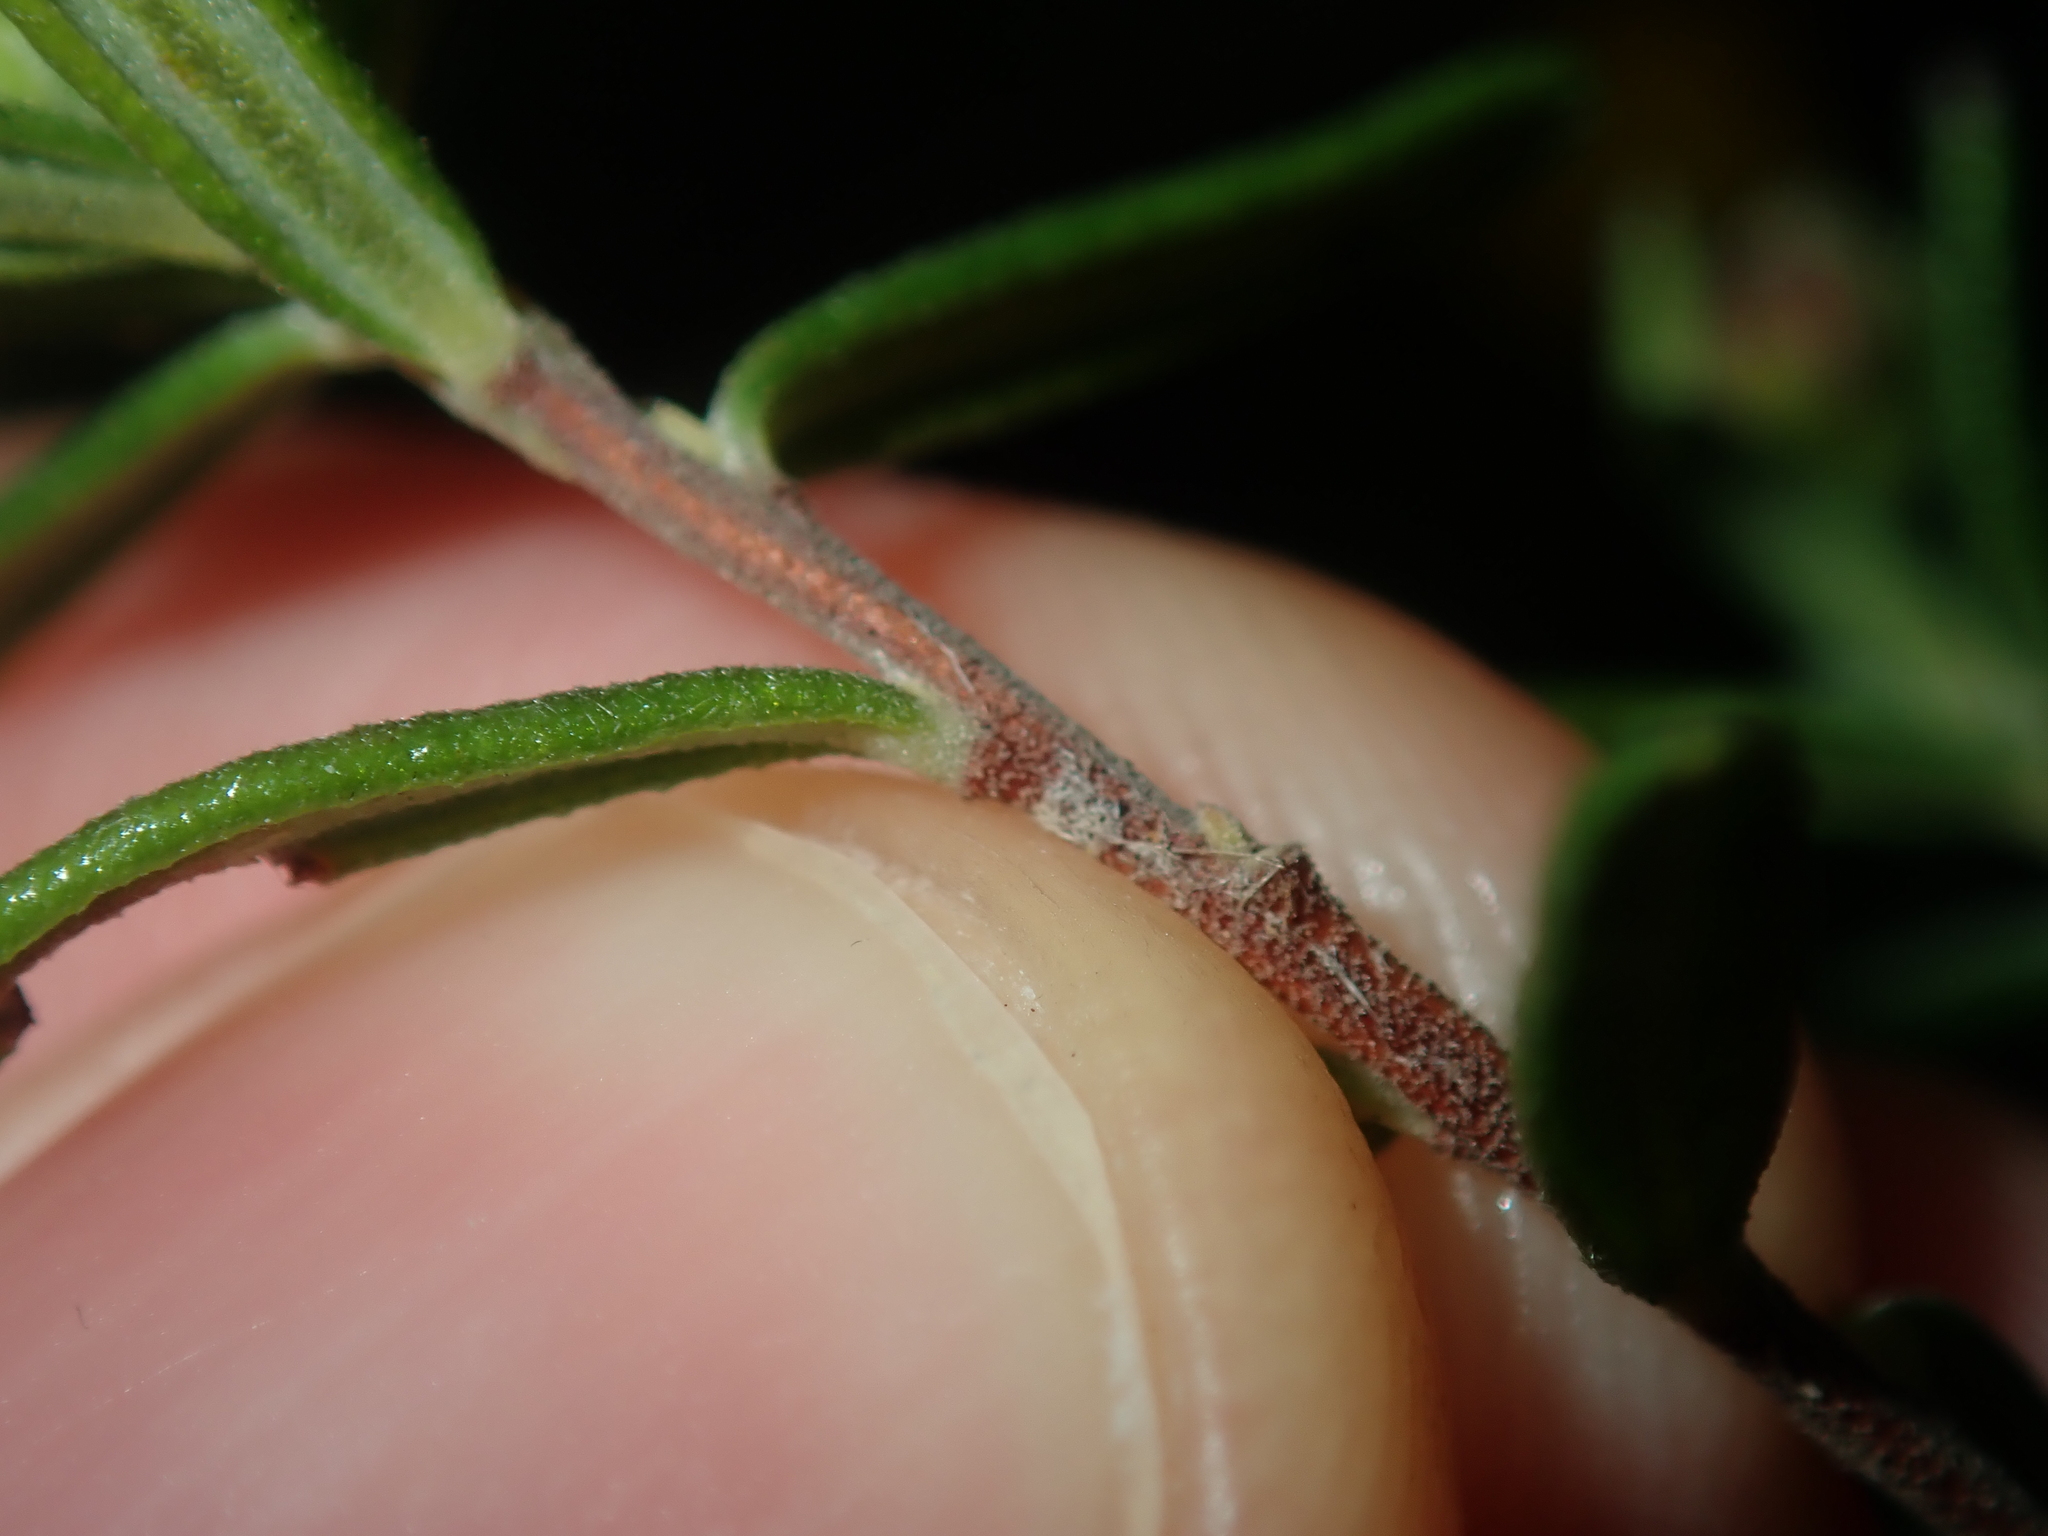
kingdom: Plantae
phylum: Tracheophyta
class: Magnoliopsida
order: Dilleniales
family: Dilleniaceae
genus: Hibbertia
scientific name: Hibbertia hypericoides
